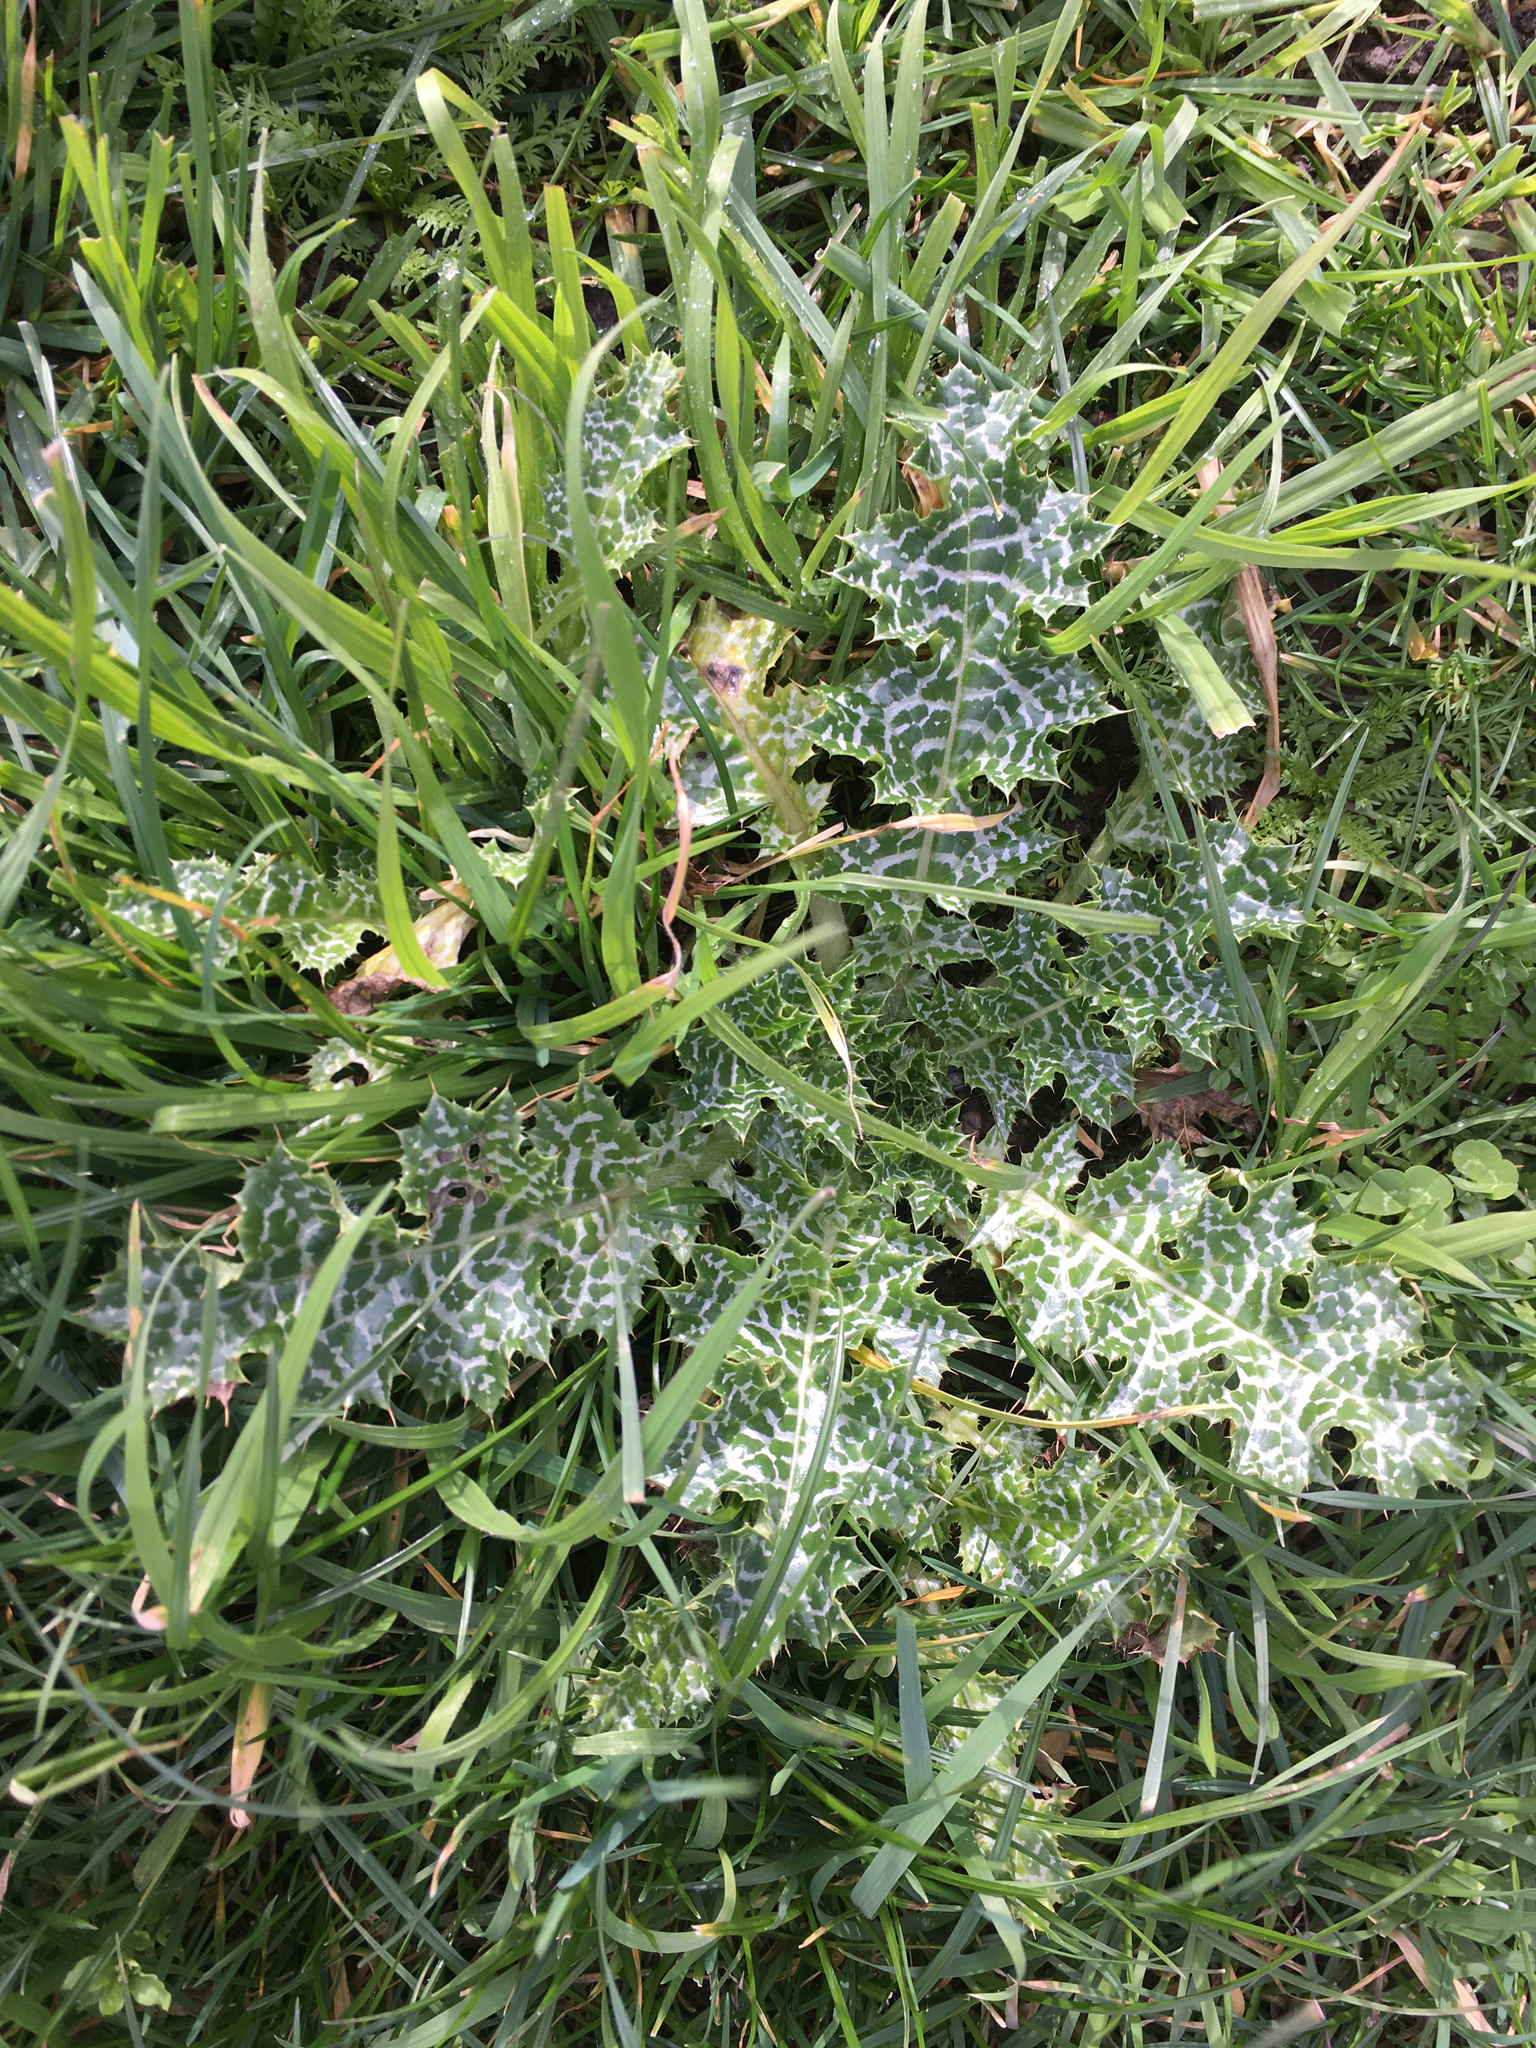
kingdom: Plantae
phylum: Tracheophyta
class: Magnoliopsida
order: Asterales
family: Asteraceae
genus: Silybum
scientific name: Silybum marianum
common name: Milk thistle
